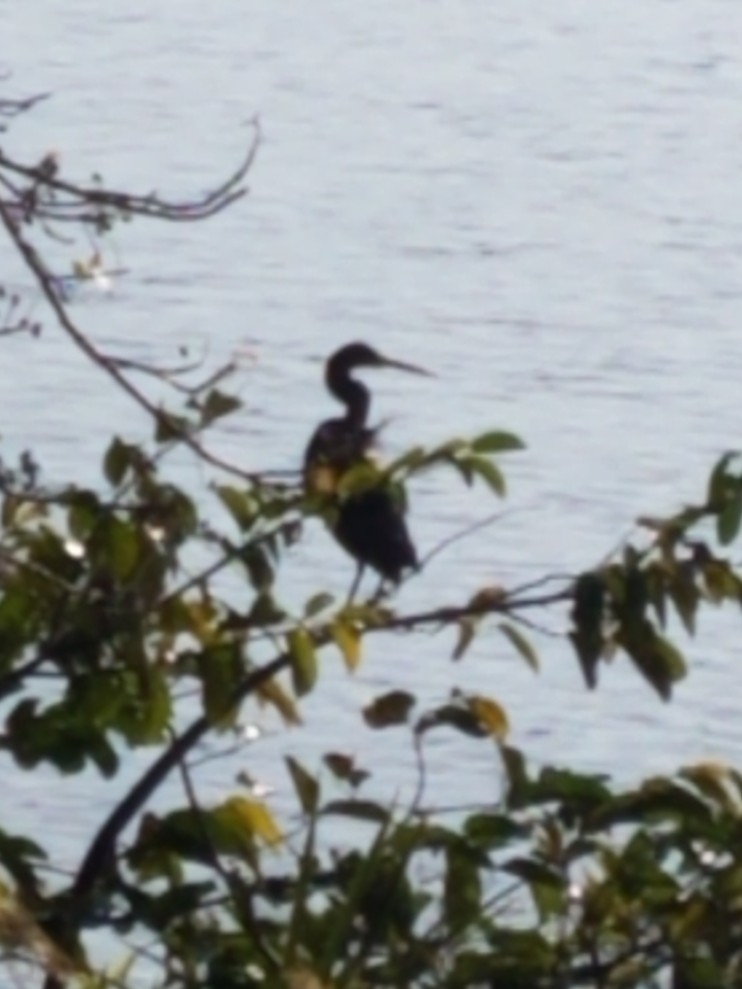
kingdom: Animalia
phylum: Chordata
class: Aves
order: Pelecaniformes
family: Ardeidae
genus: Egretta
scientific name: Egretta tricolor
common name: Tricolored heron
